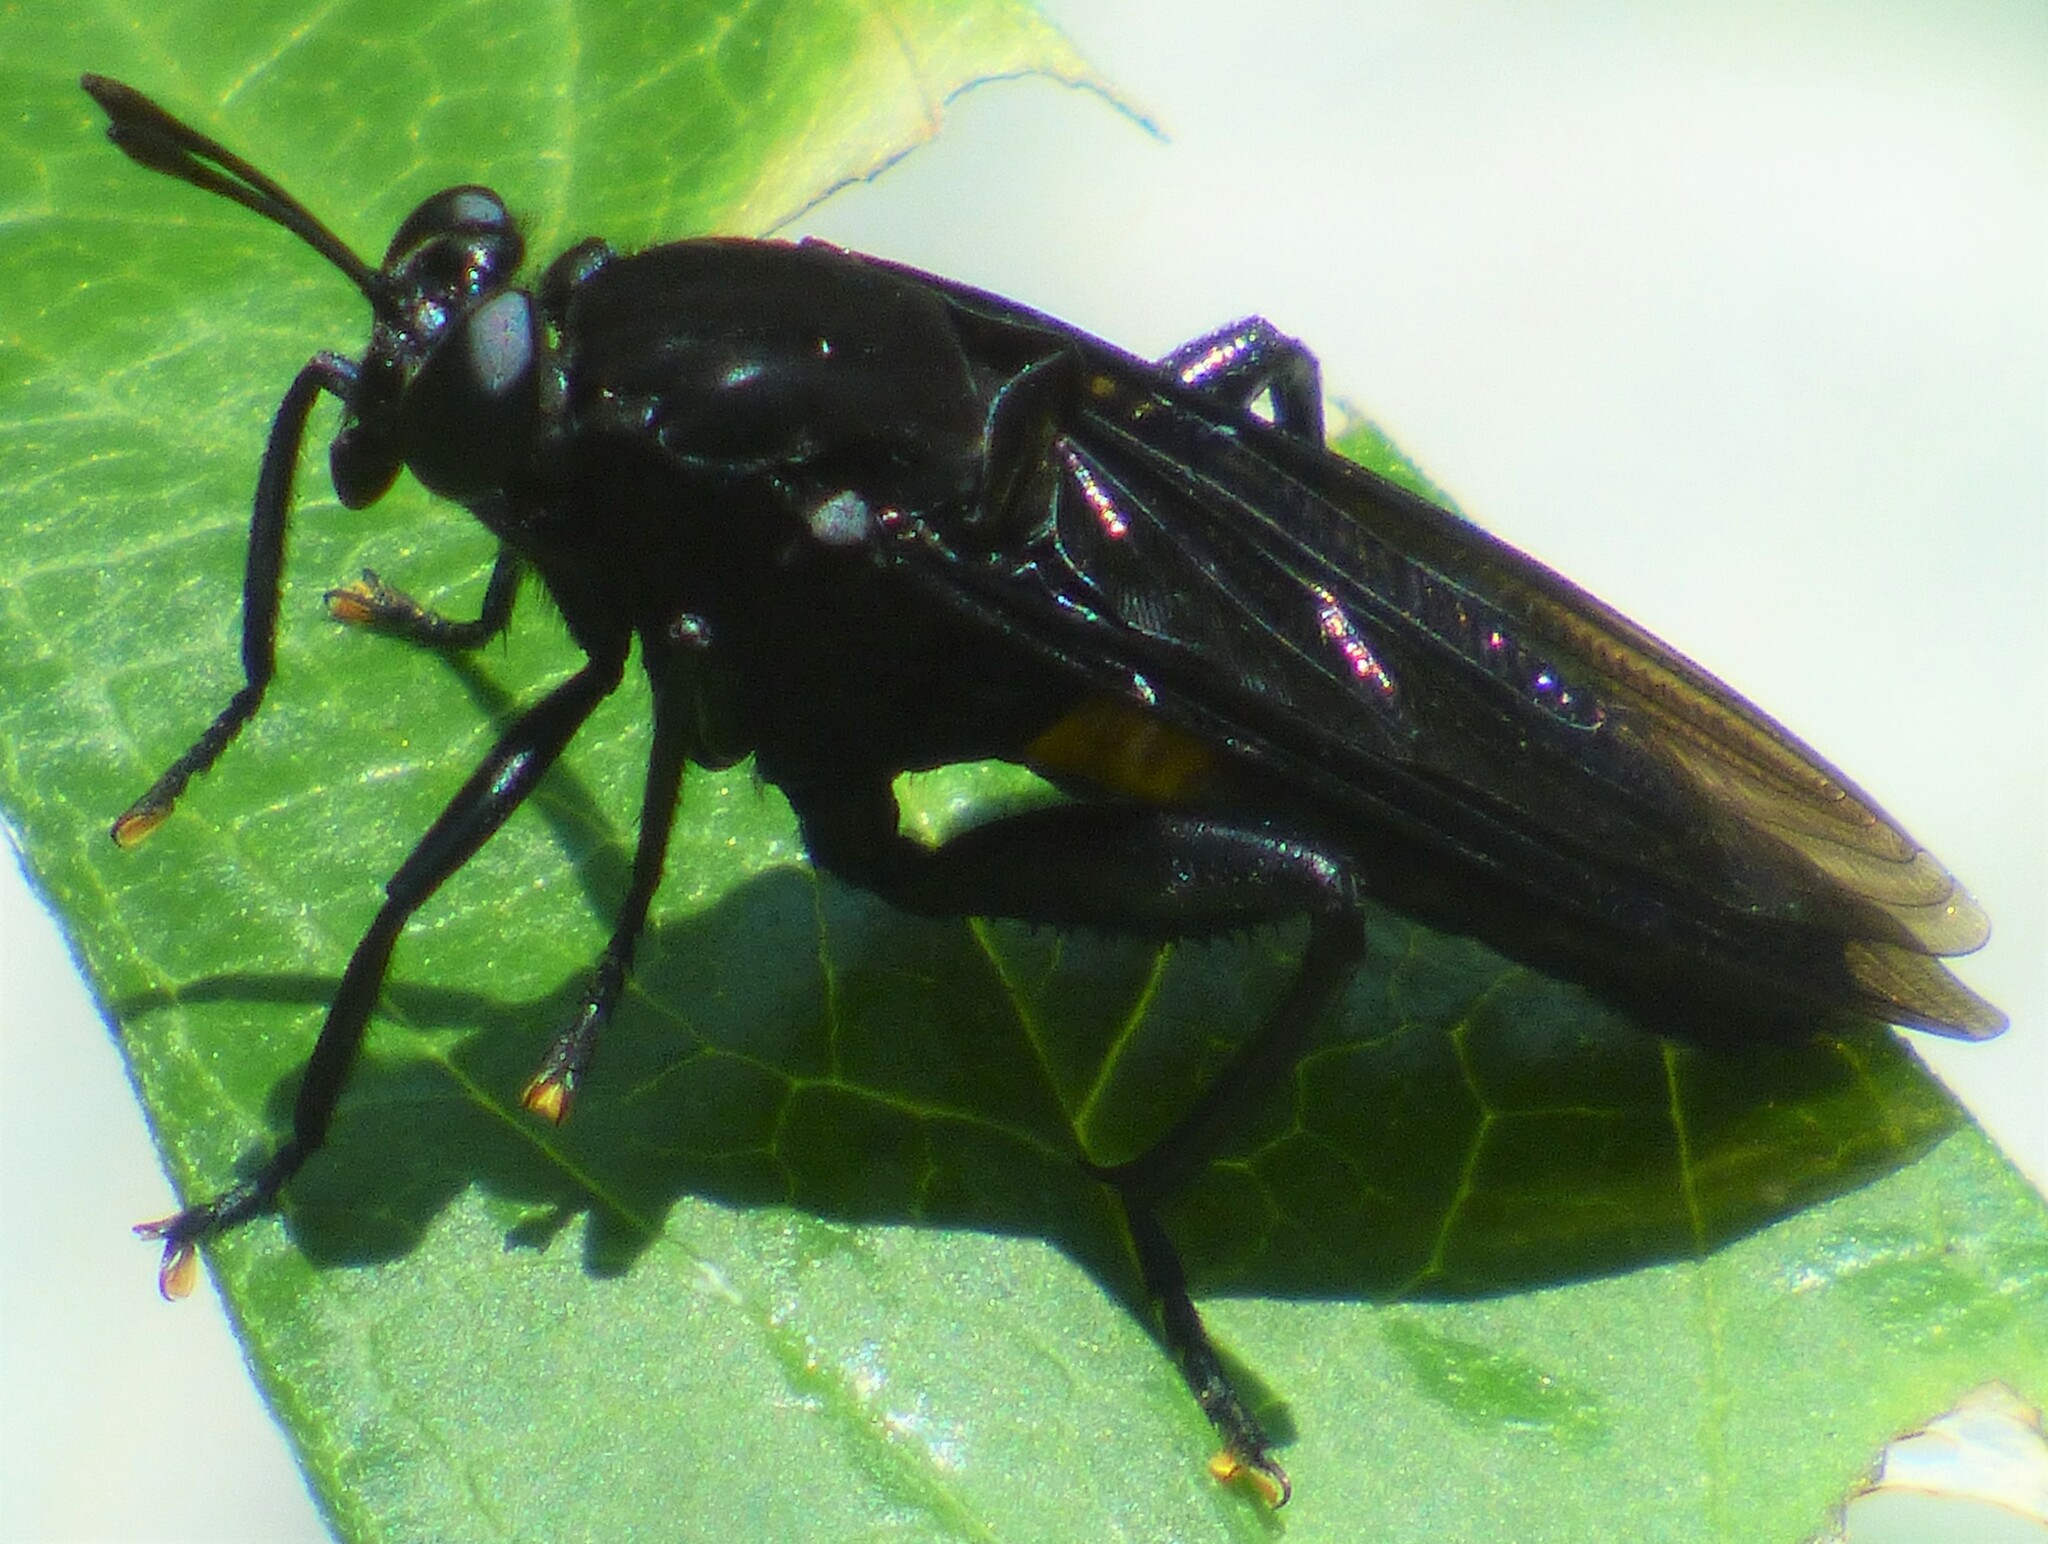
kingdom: Animalia
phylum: Arthropoda
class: Insecta
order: Diptera
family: Mydidae
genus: Mydas
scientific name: Mydas clavatus
